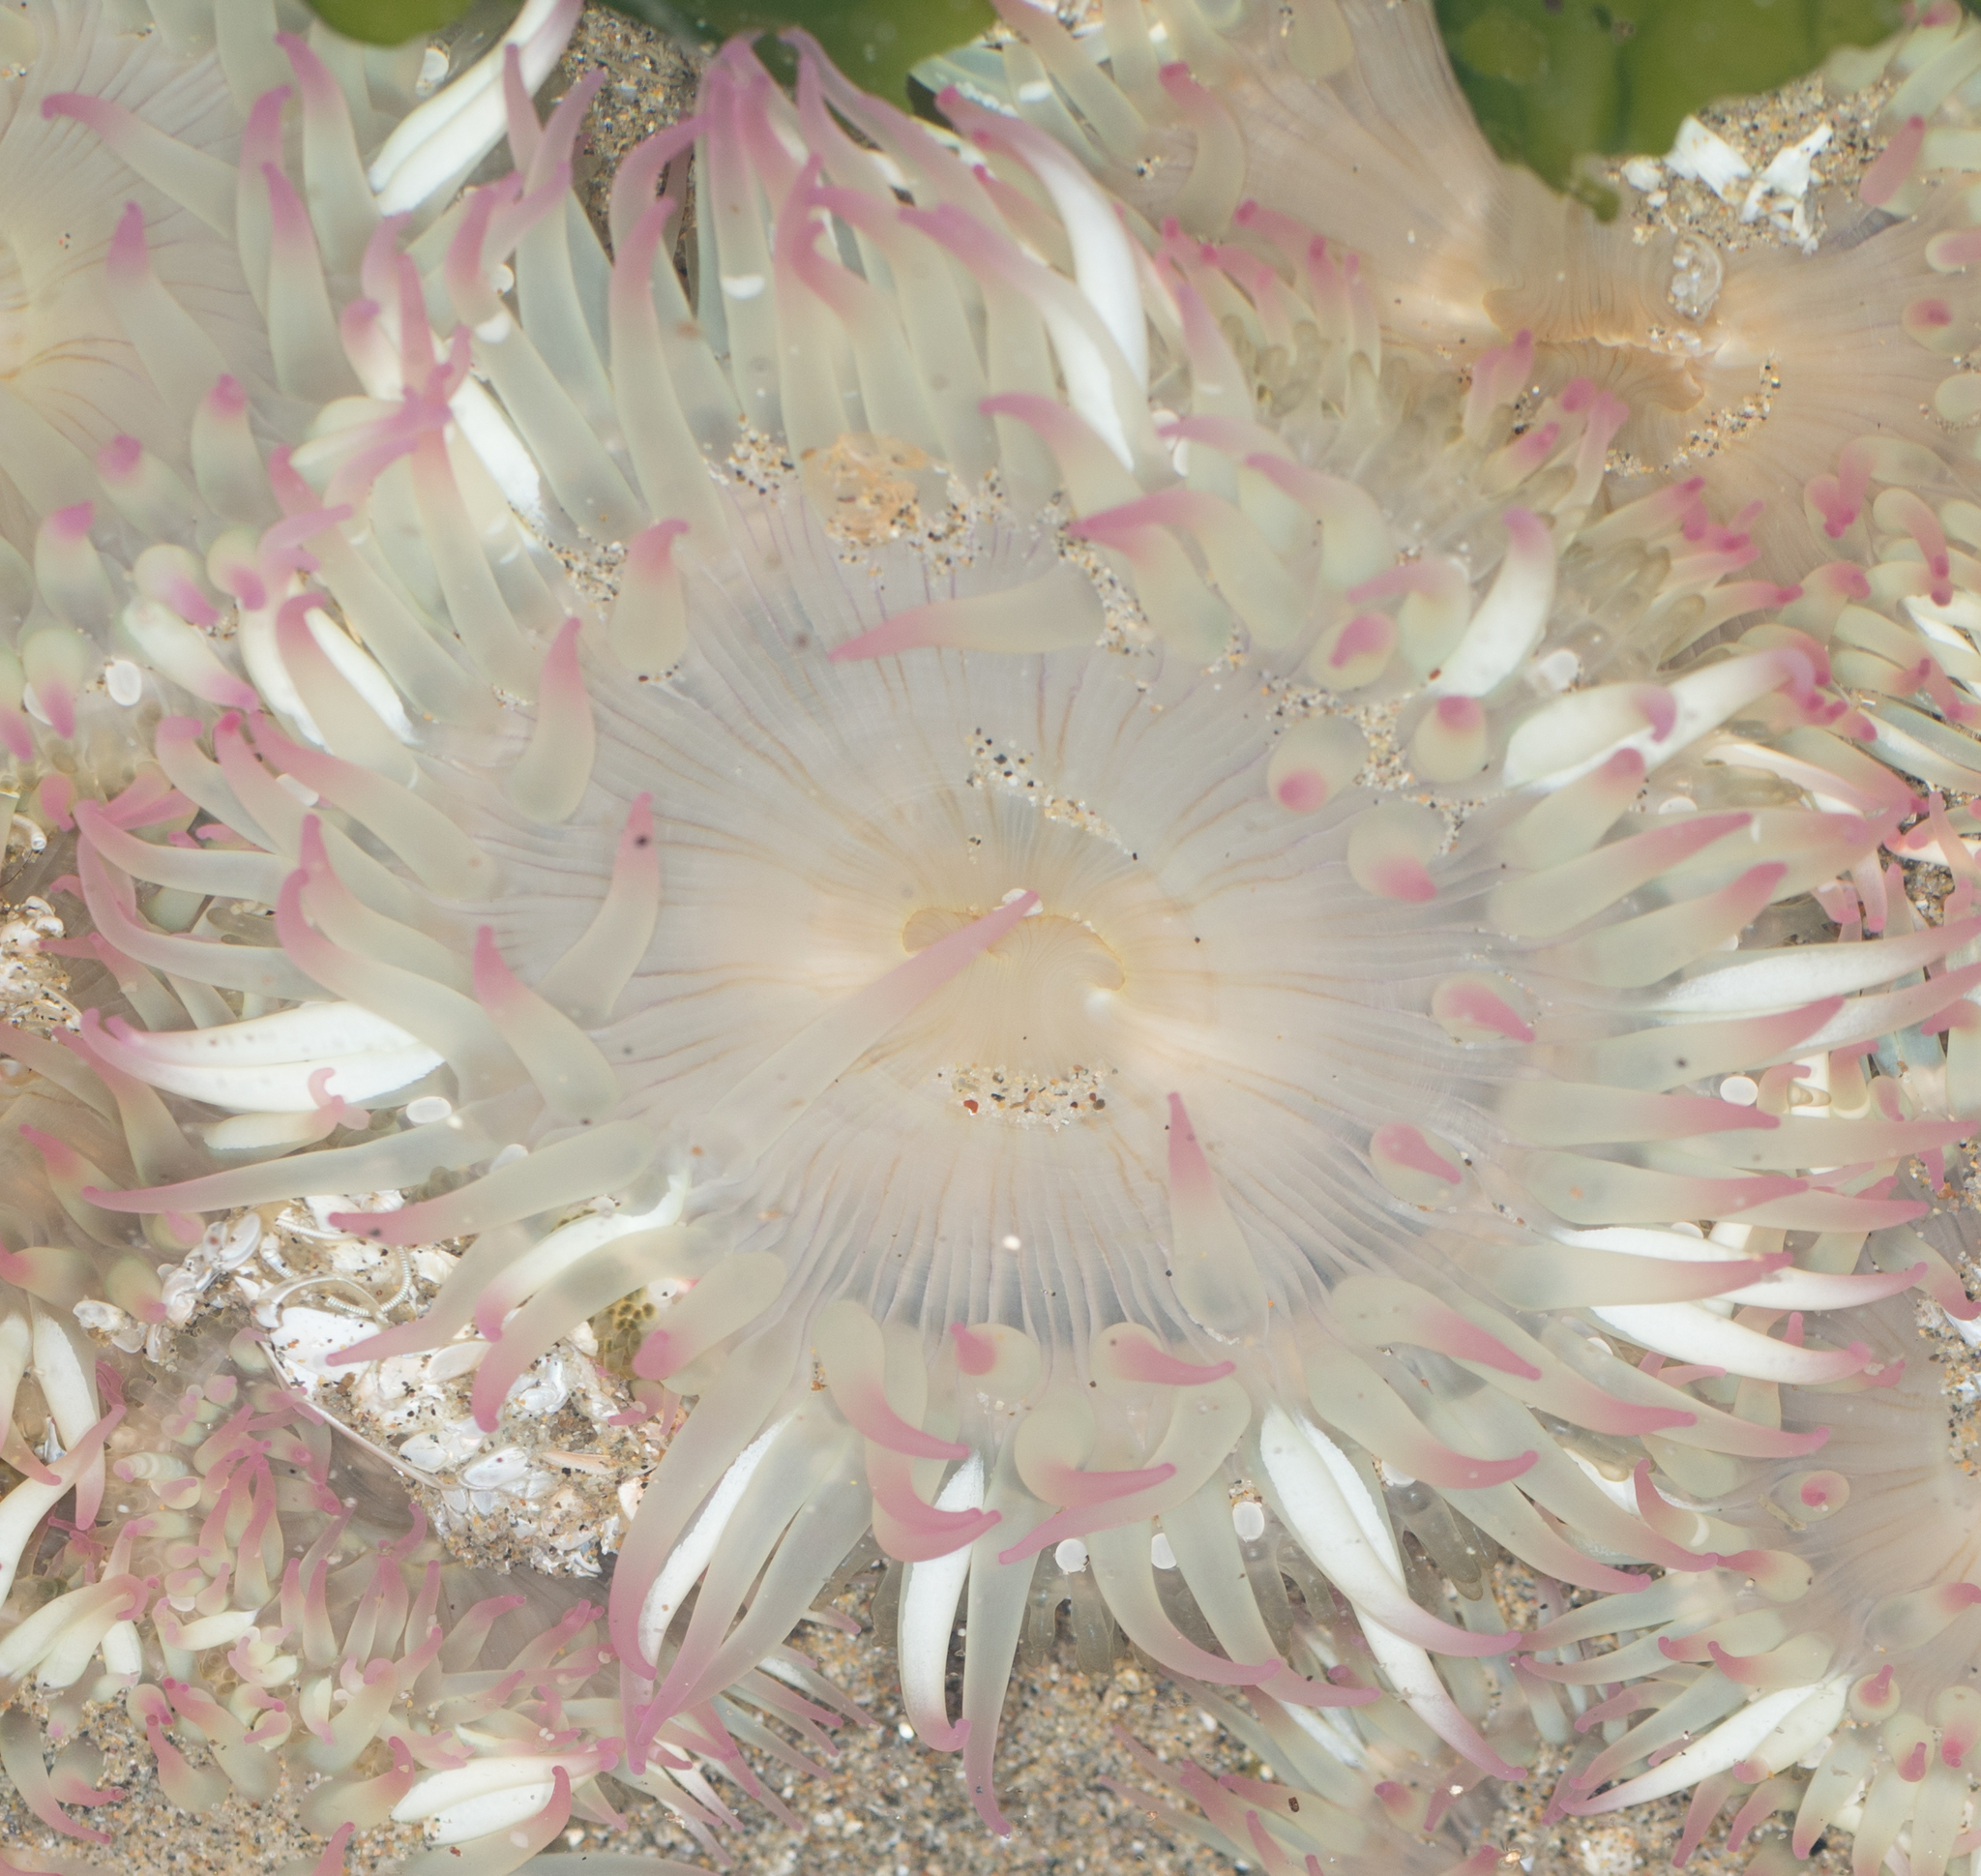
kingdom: Animalia
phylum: Cnidaria
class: Anthozoa
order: Actiniaria
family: Actiniidae
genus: Anthopleura
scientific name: Anthopleura elegantissima
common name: Clonal anemone
